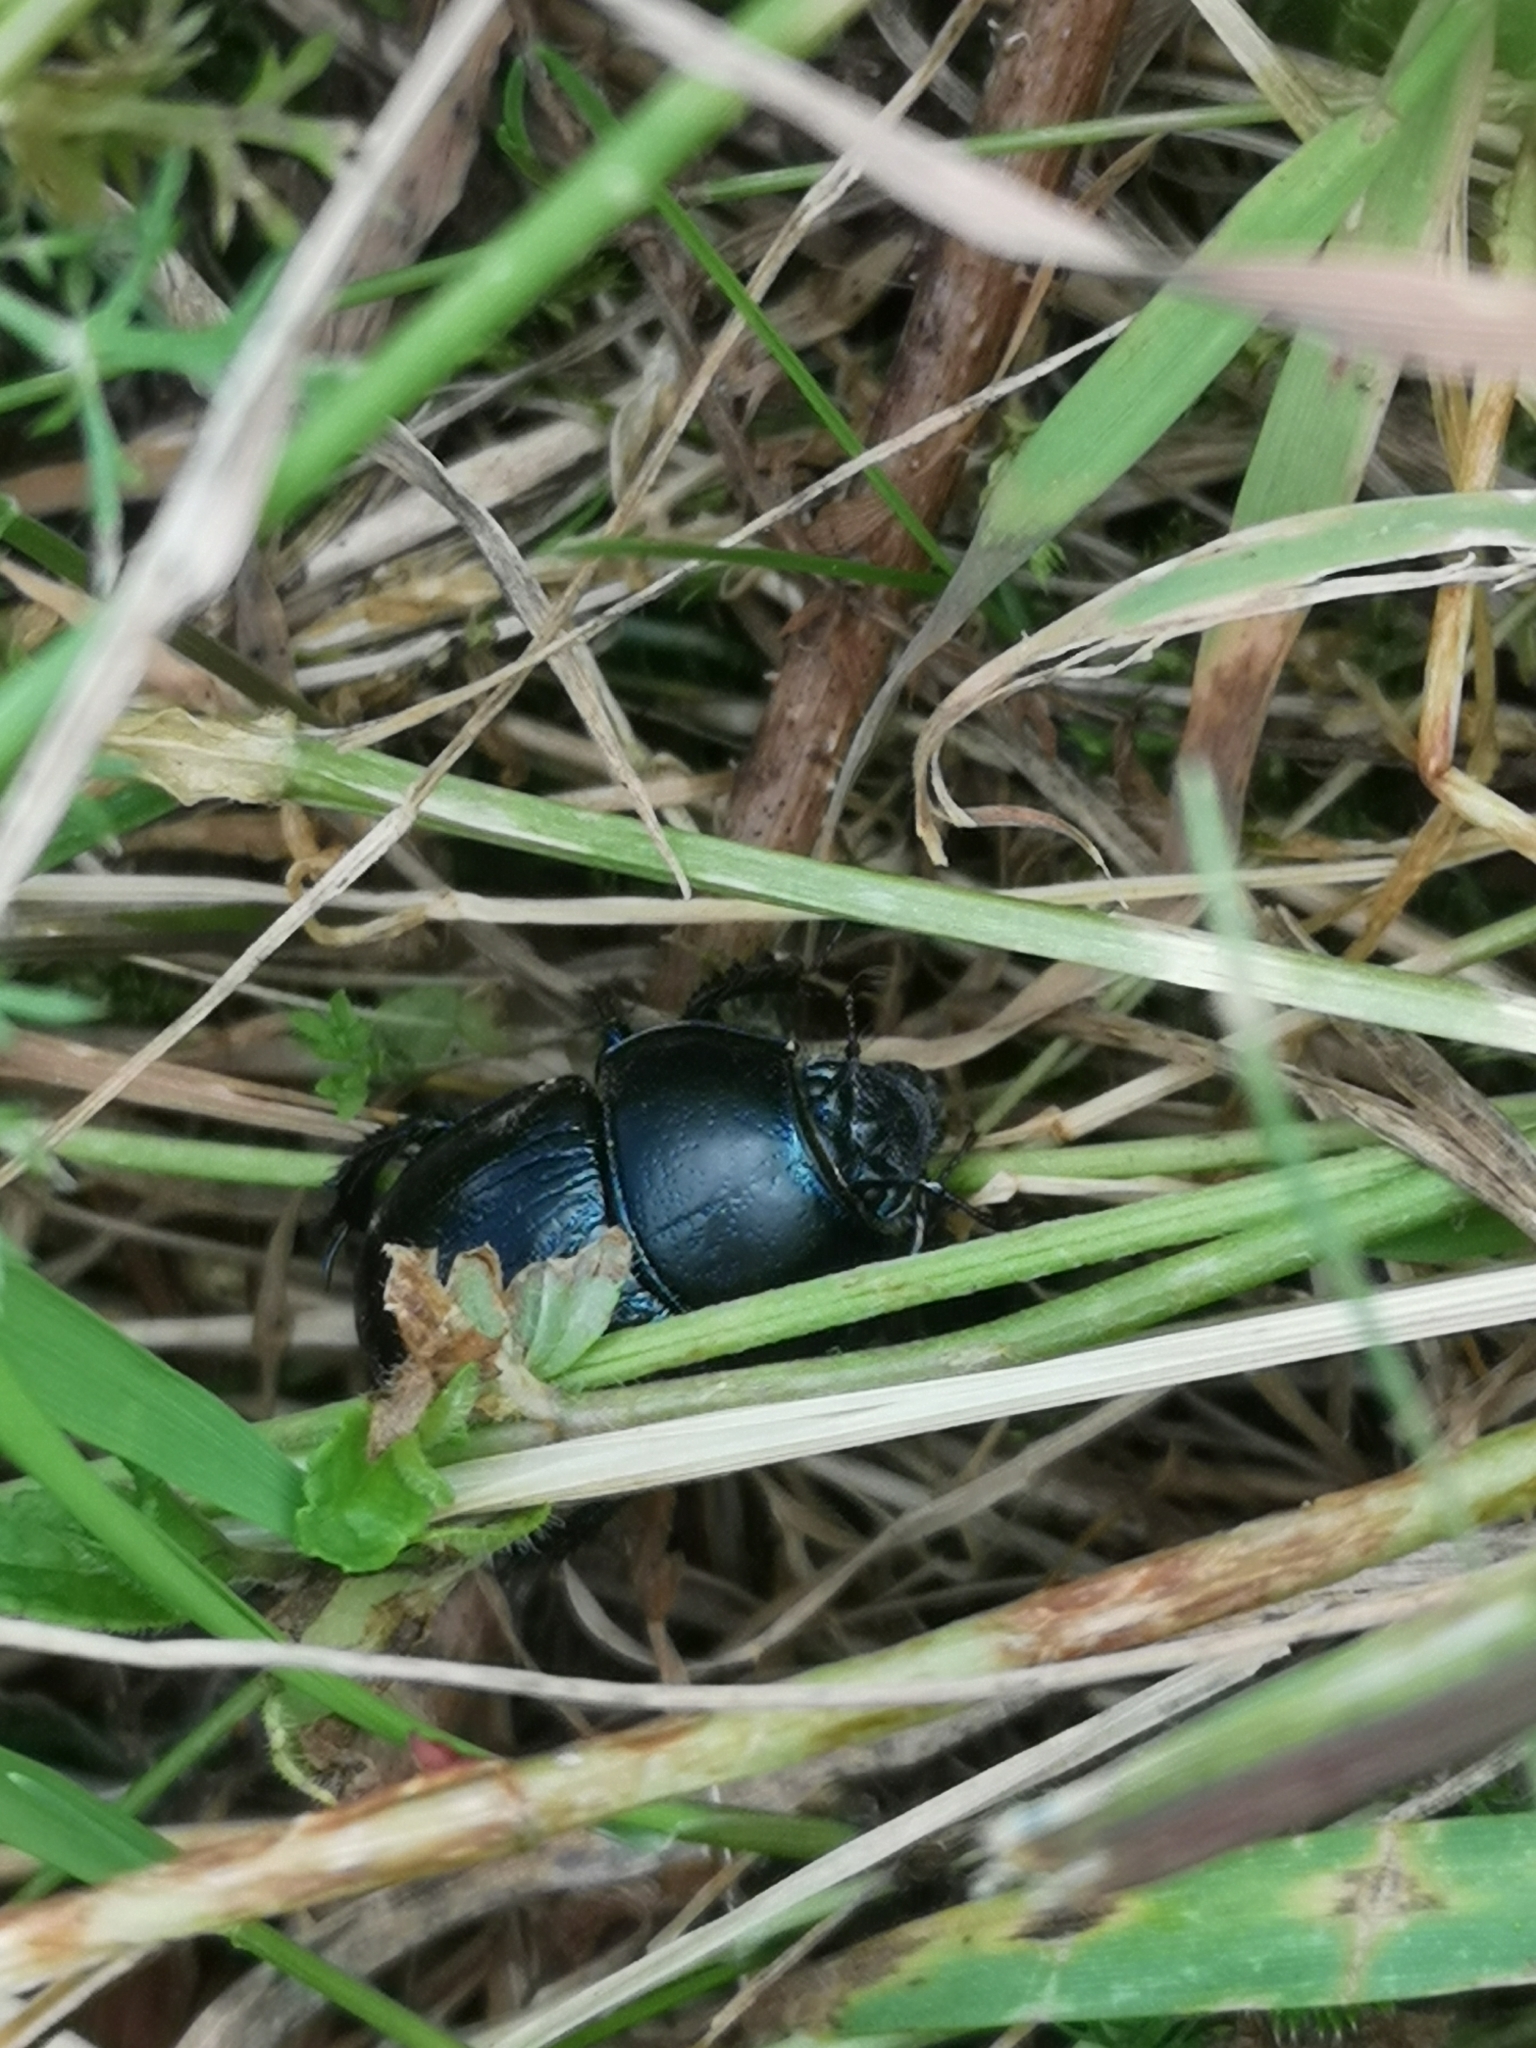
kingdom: Animalia
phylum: Arthropoda
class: Insecta
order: Coleoptera
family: Geotrupidae
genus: Anoplotrupes
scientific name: Anoplotrupes stercorosus
